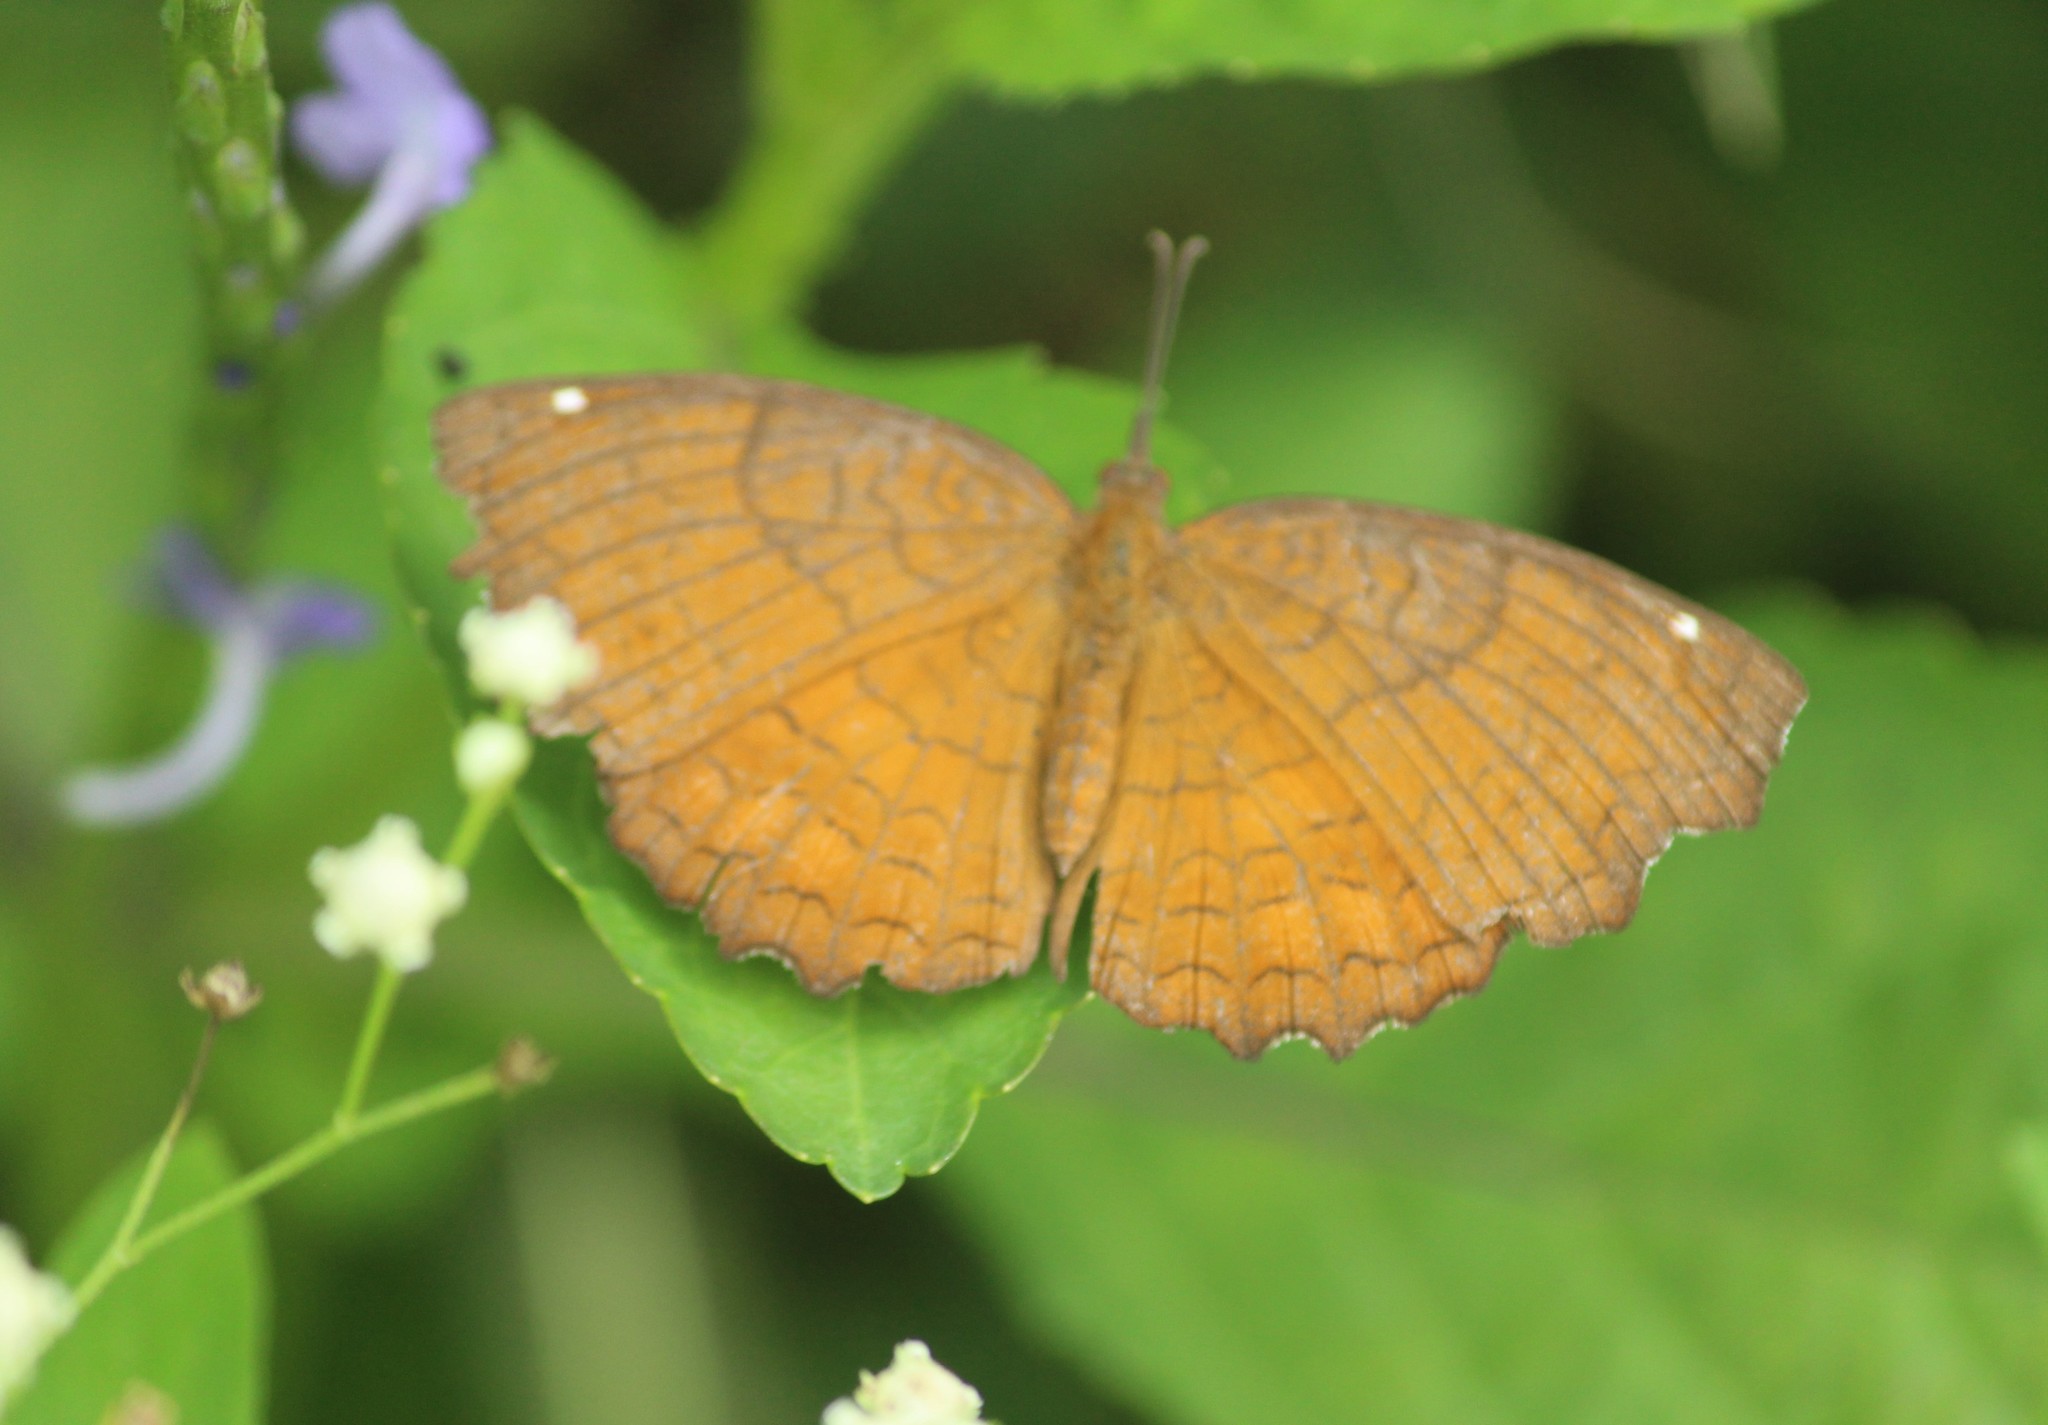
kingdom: Animalia
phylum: Arthropoda
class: Insecta
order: Lepidoptera
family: Nymphalidae
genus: Ariadne
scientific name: Ariadne ariadne
